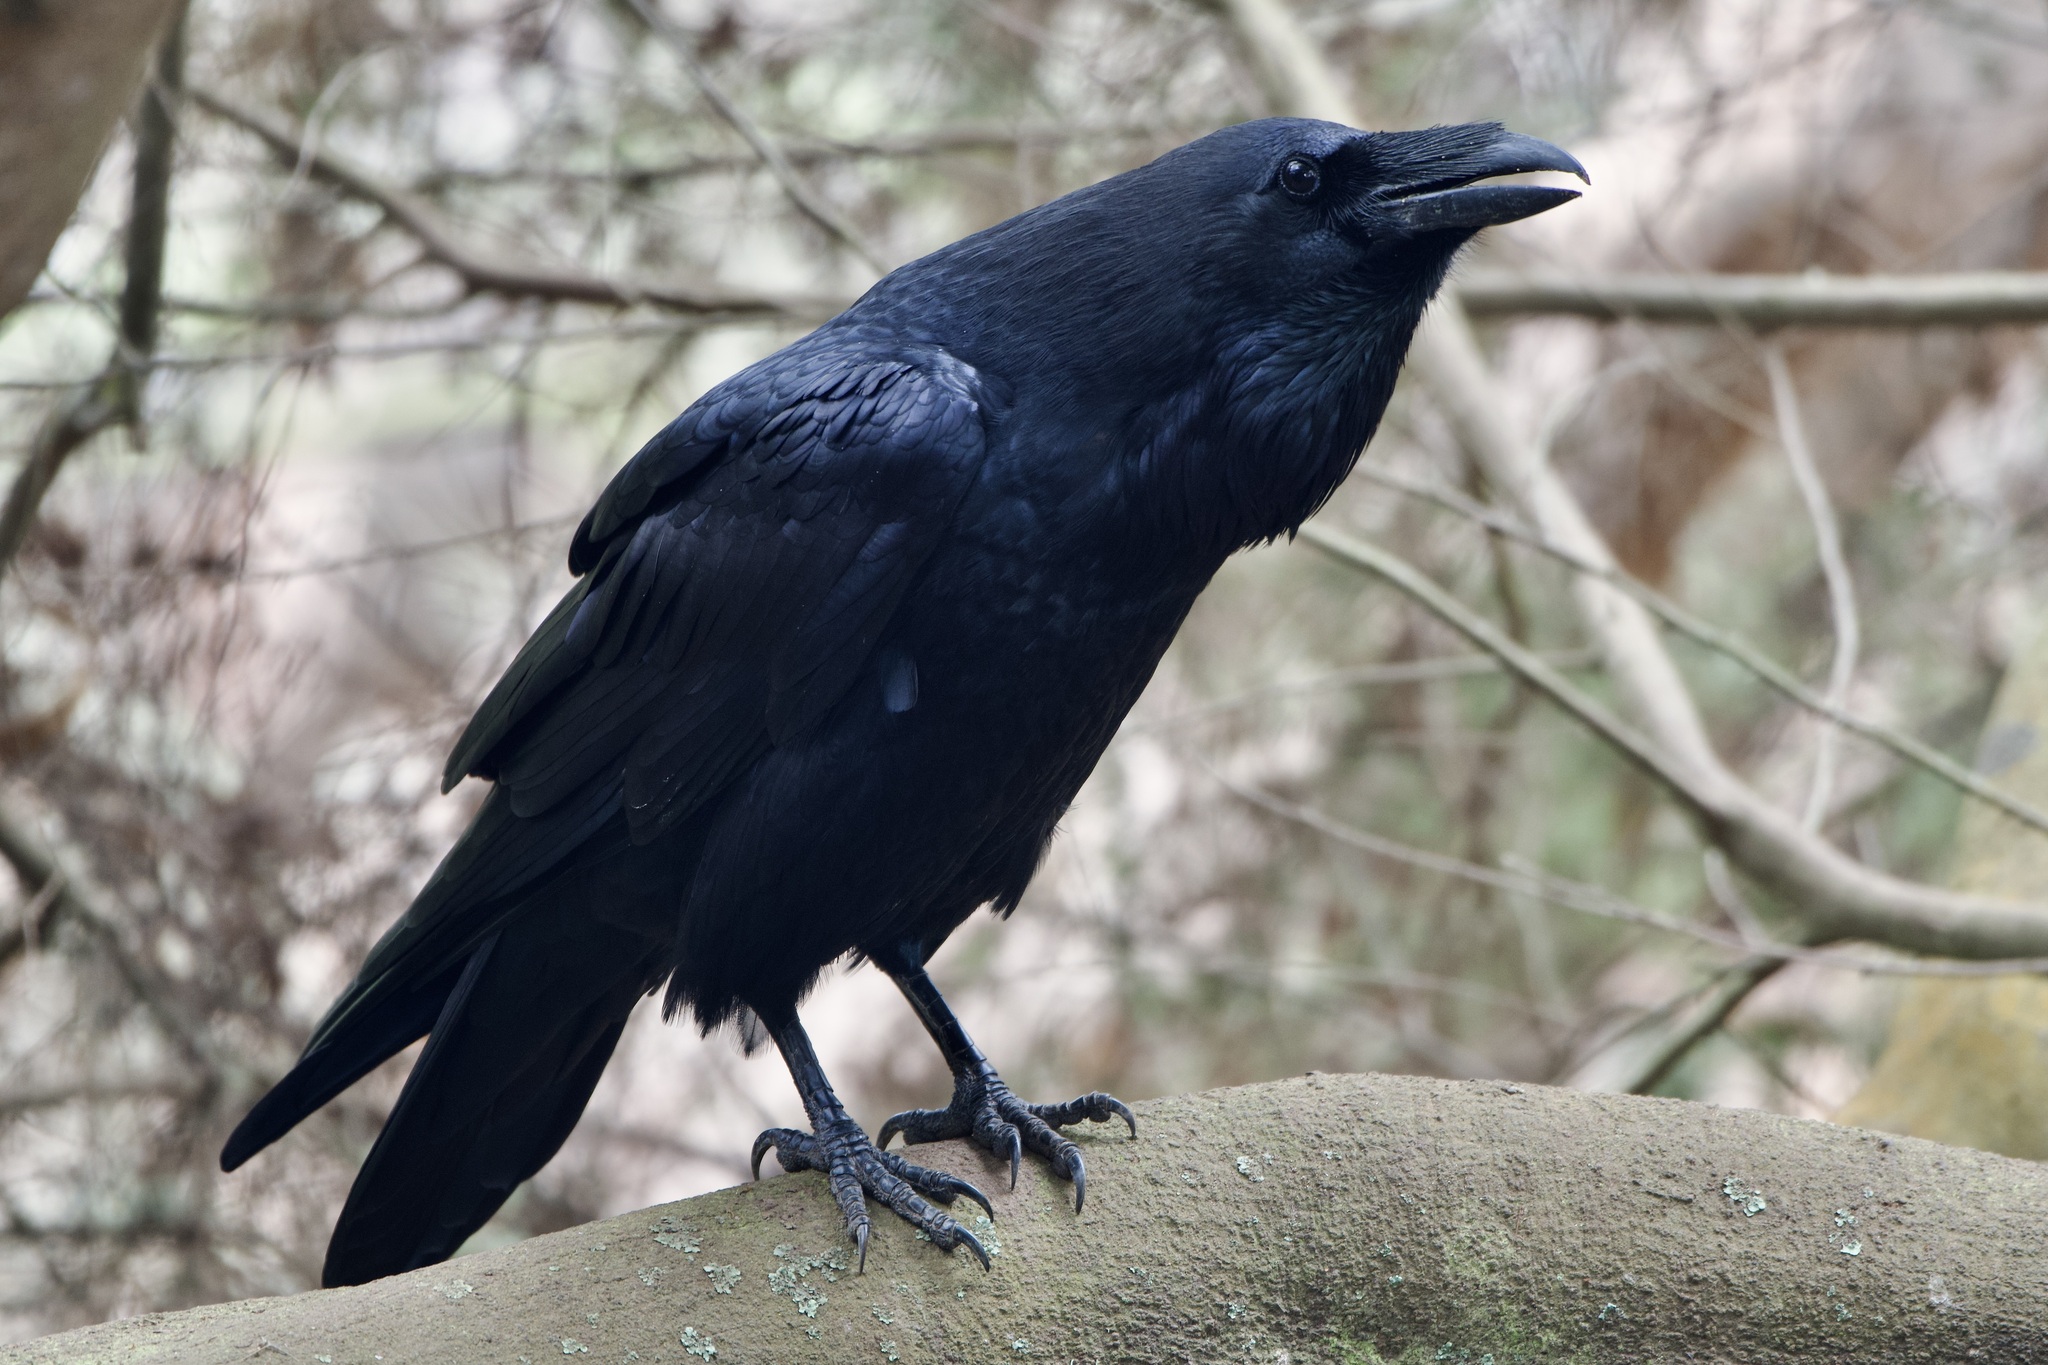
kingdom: Animalia
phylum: Chordata
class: Aves
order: Passeriformes
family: Corvidae
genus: Corvus
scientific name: Corvus corax
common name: Common raven
